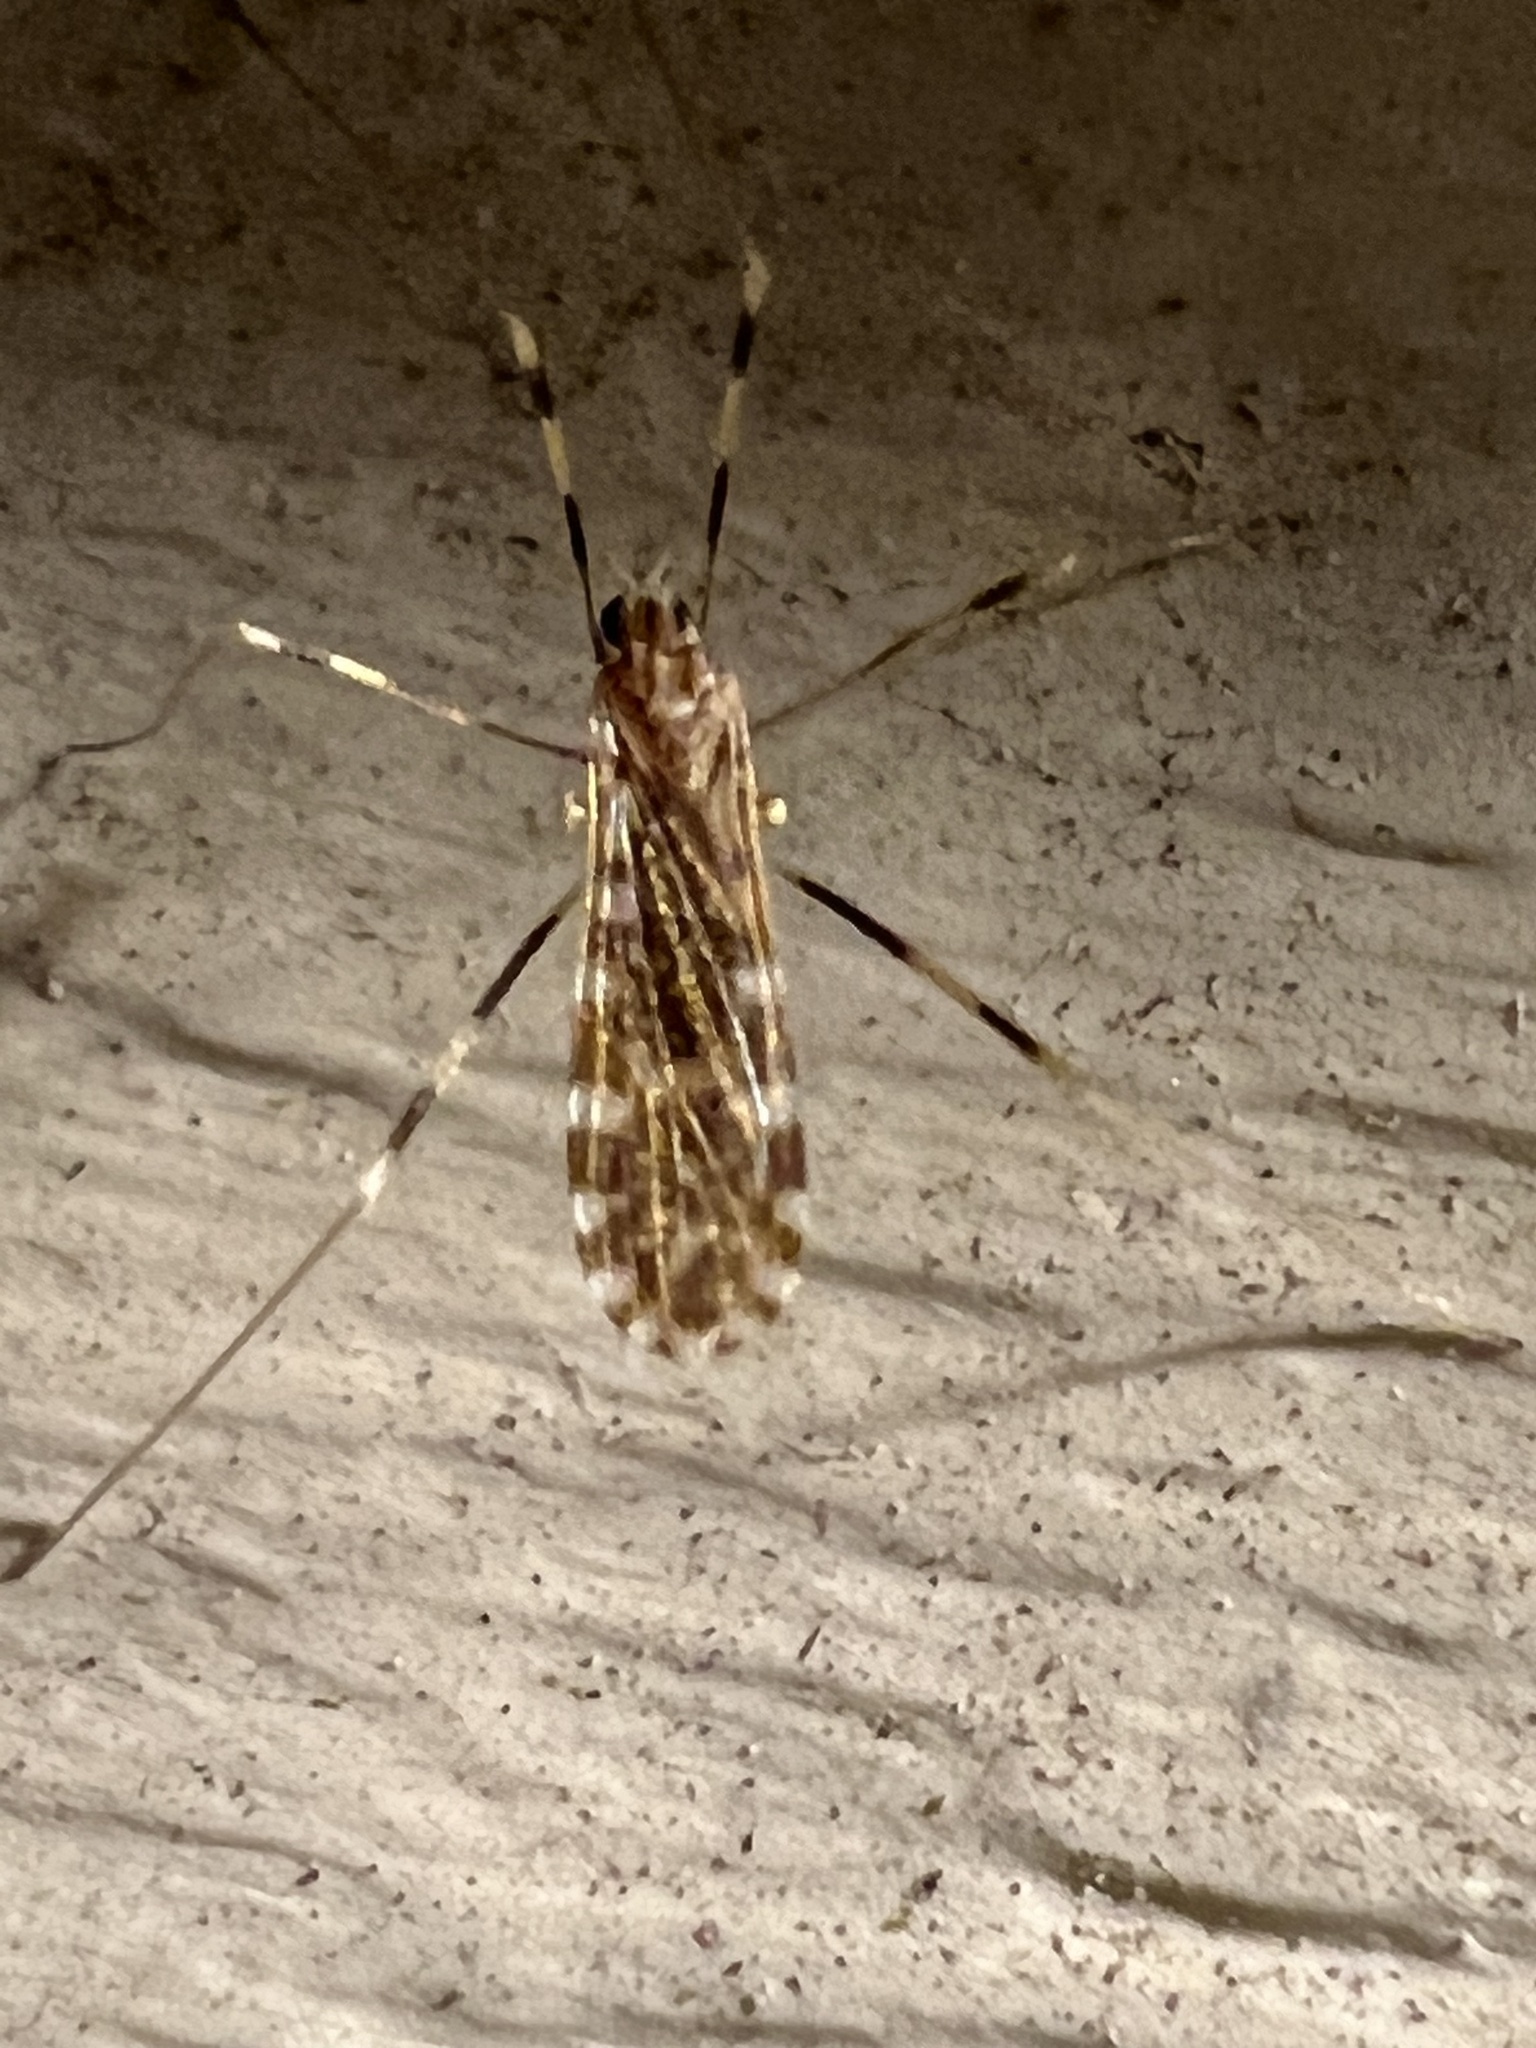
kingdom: Animalia
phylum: Arthropoda
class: Insecta
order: Diptera
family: Limoniidae
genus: Erioptera
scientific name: Erioptera caliptera
